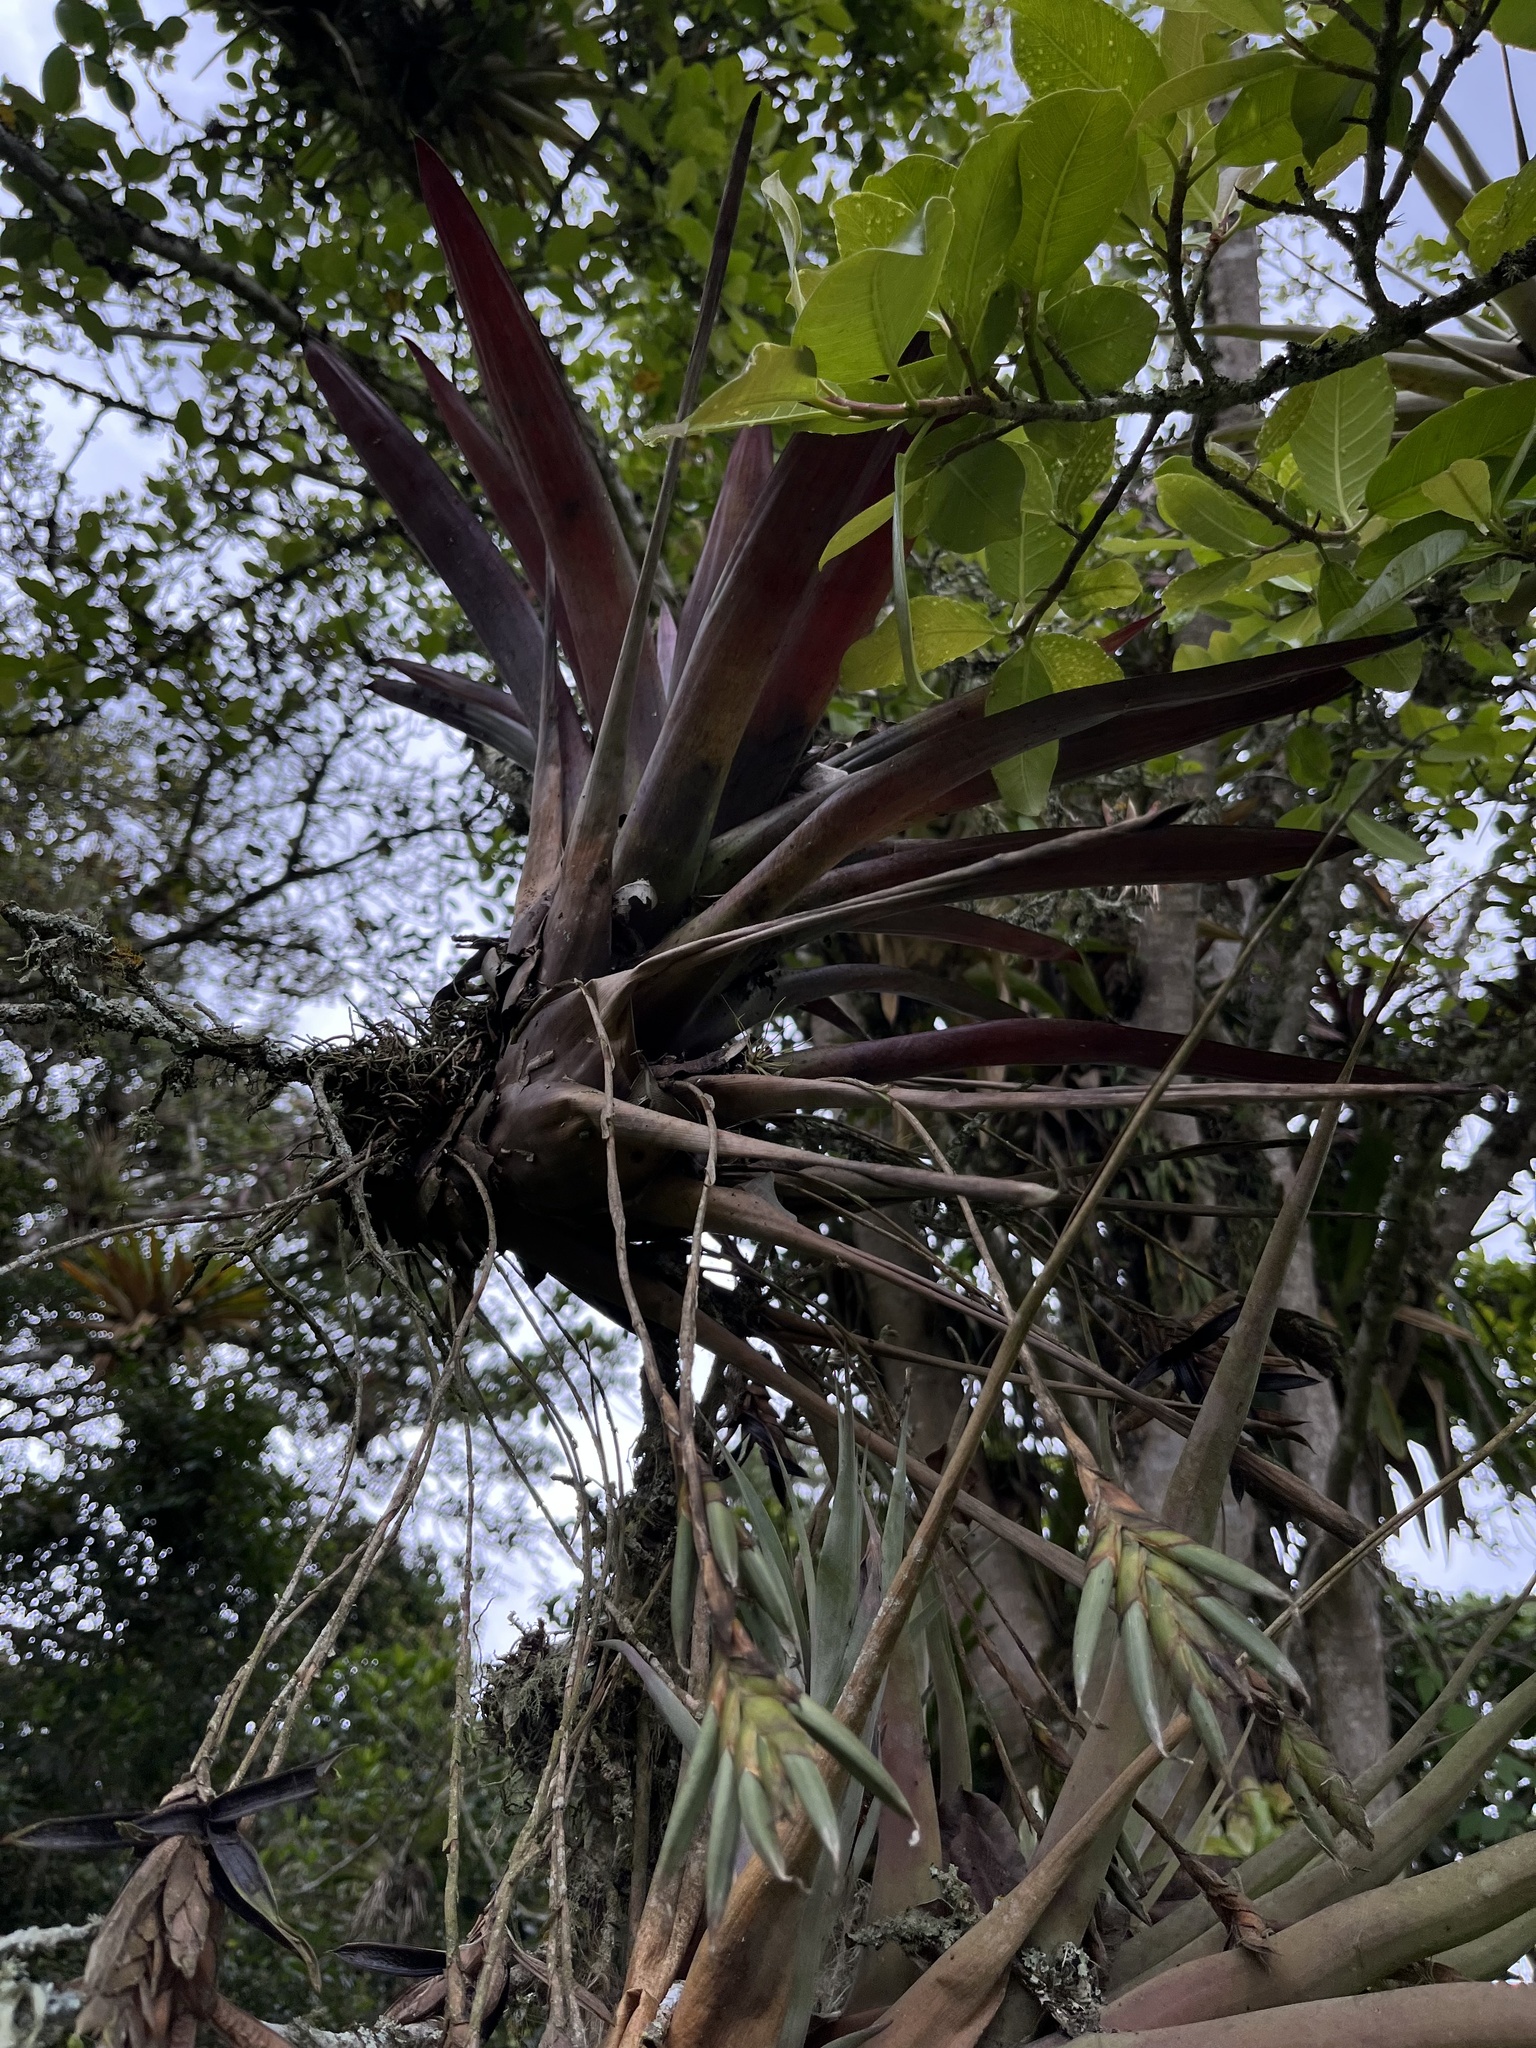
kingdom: Plantae
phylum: Tracheophyta
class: Liliopsida
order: Poales
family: Bromeliaceae
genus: Tillandsia
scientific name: Tillandsia complanata
